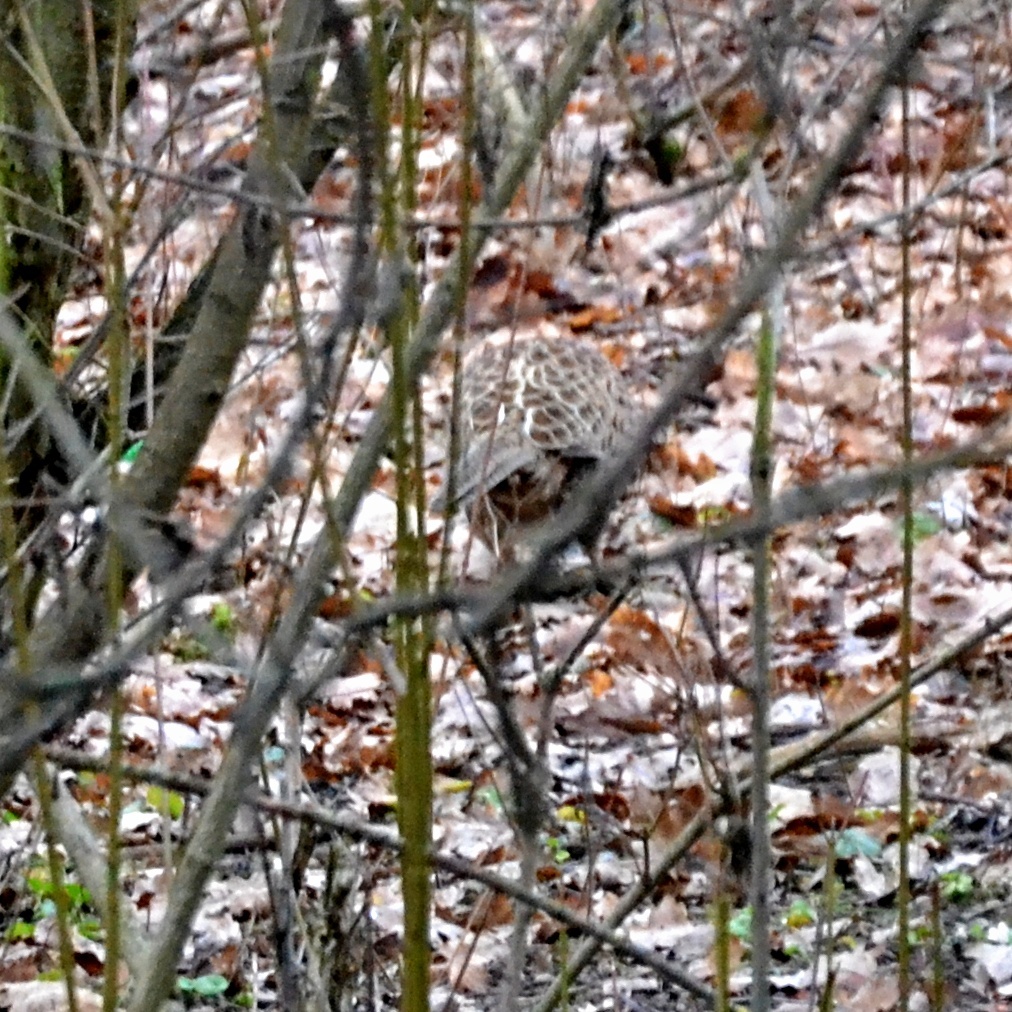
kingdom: Animalia
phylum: Chordata
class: Aves
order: Galliformes
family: Phasianidae
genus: Phasianus
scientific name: Phasianus colchicus
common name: Common pheasant
